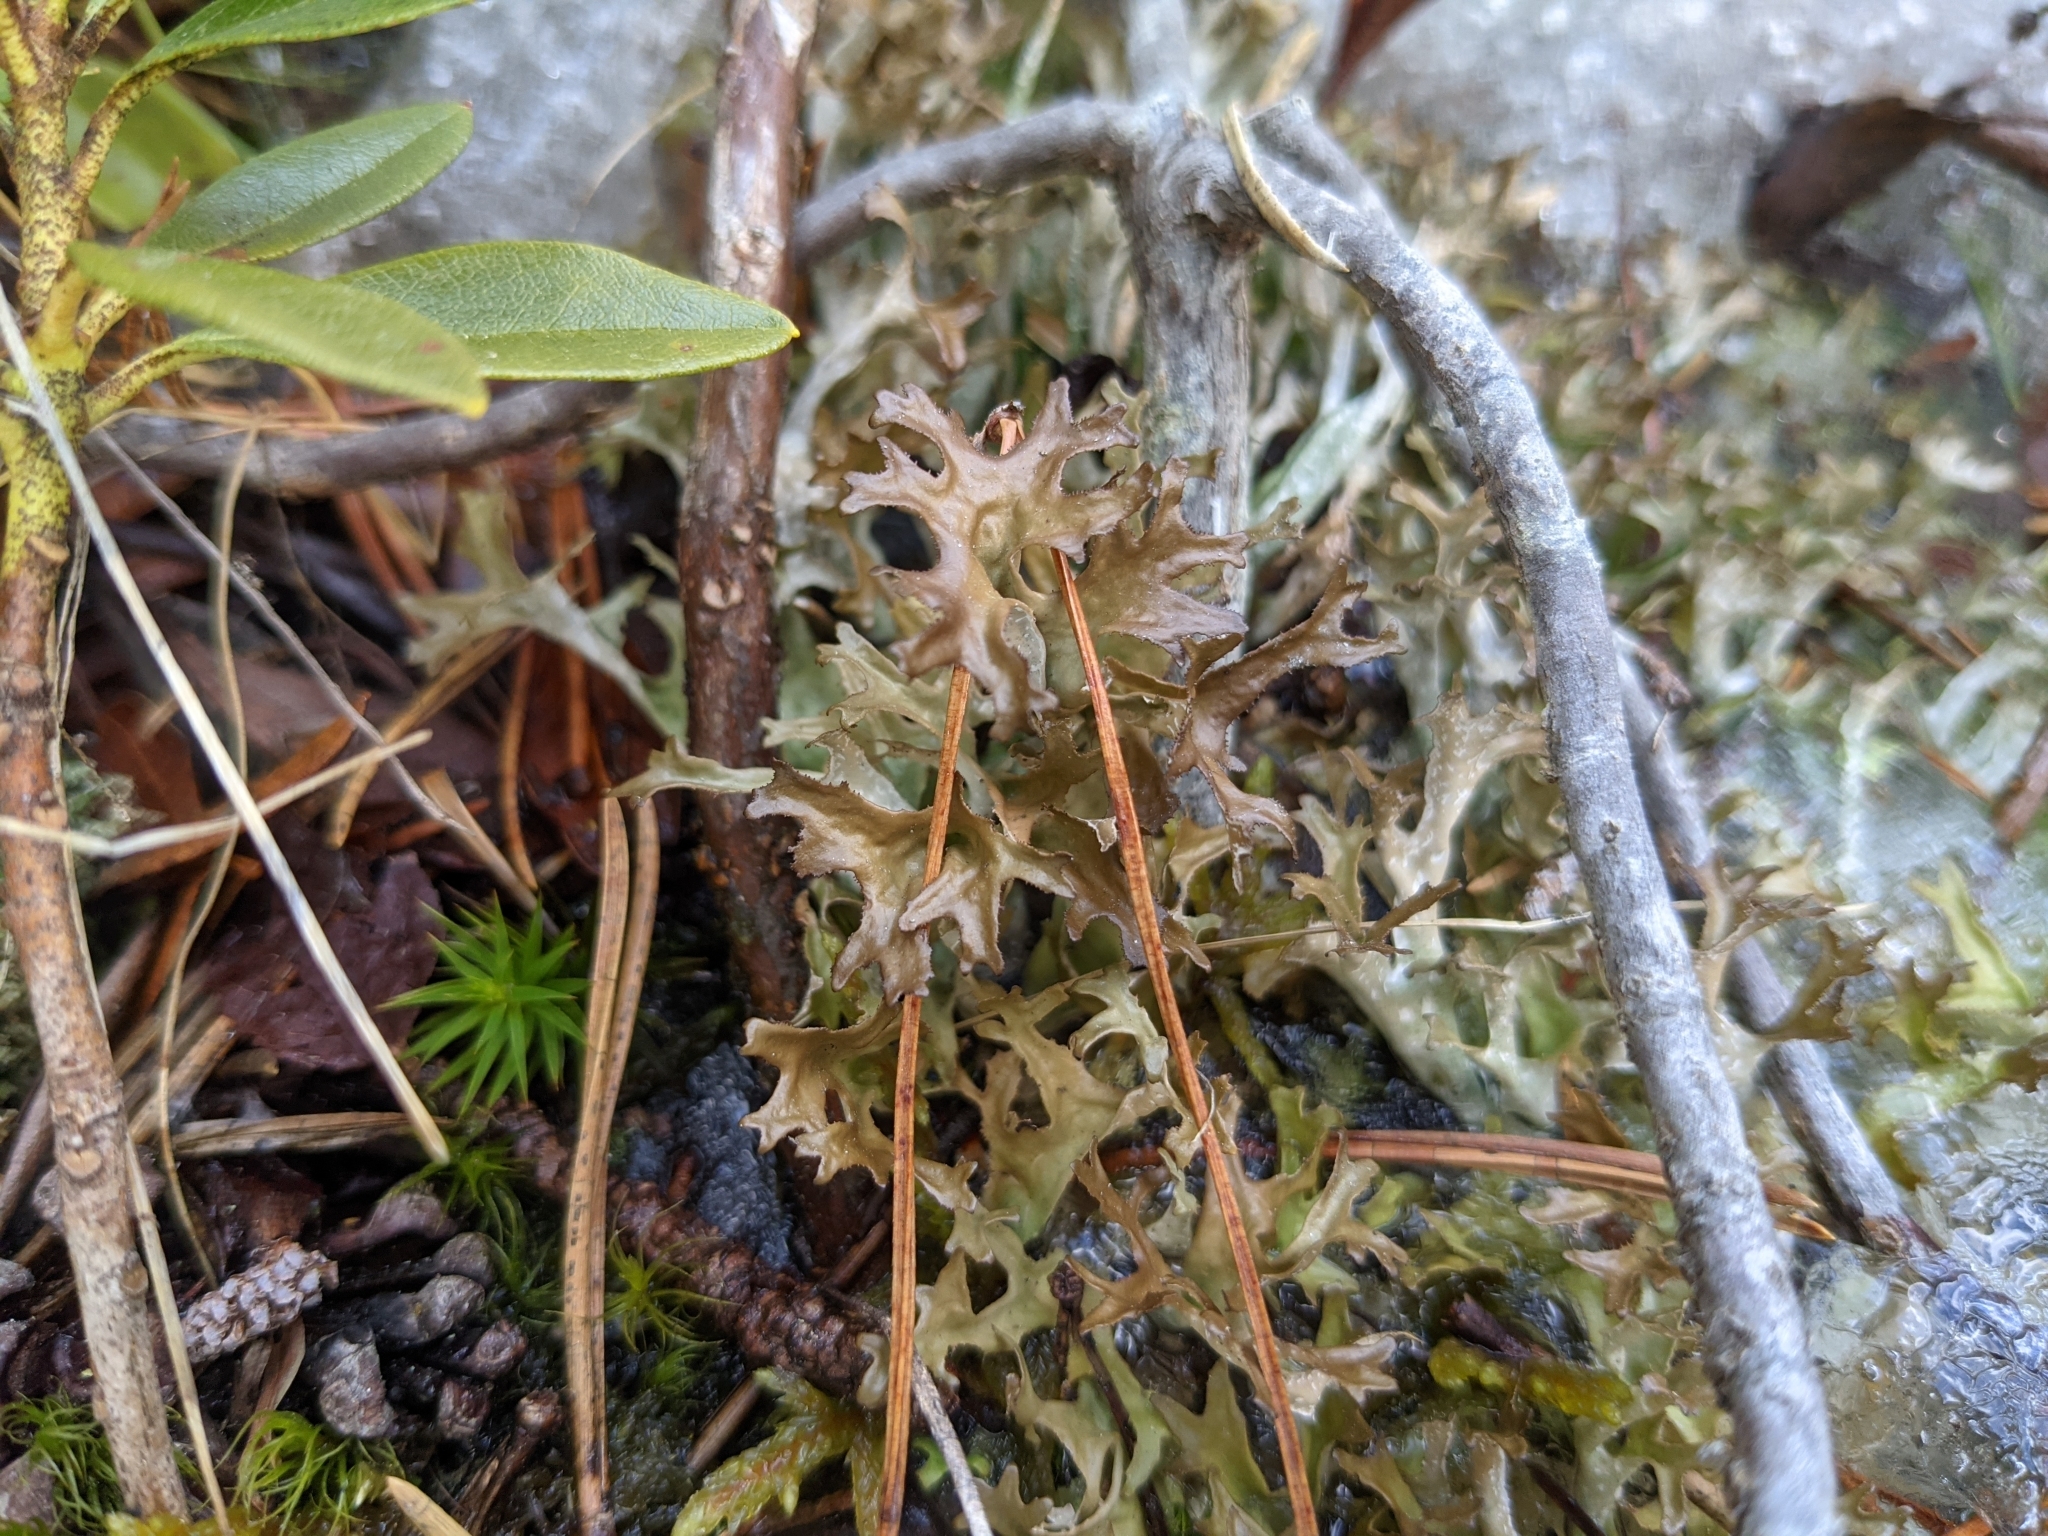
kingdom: Fungi
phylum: Ascomycota
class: Lecanoromycetes
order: Lecanorales
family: Parmeliaceae
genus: Cetraria
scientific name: Cetraria islandica
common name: Iceland lichen
